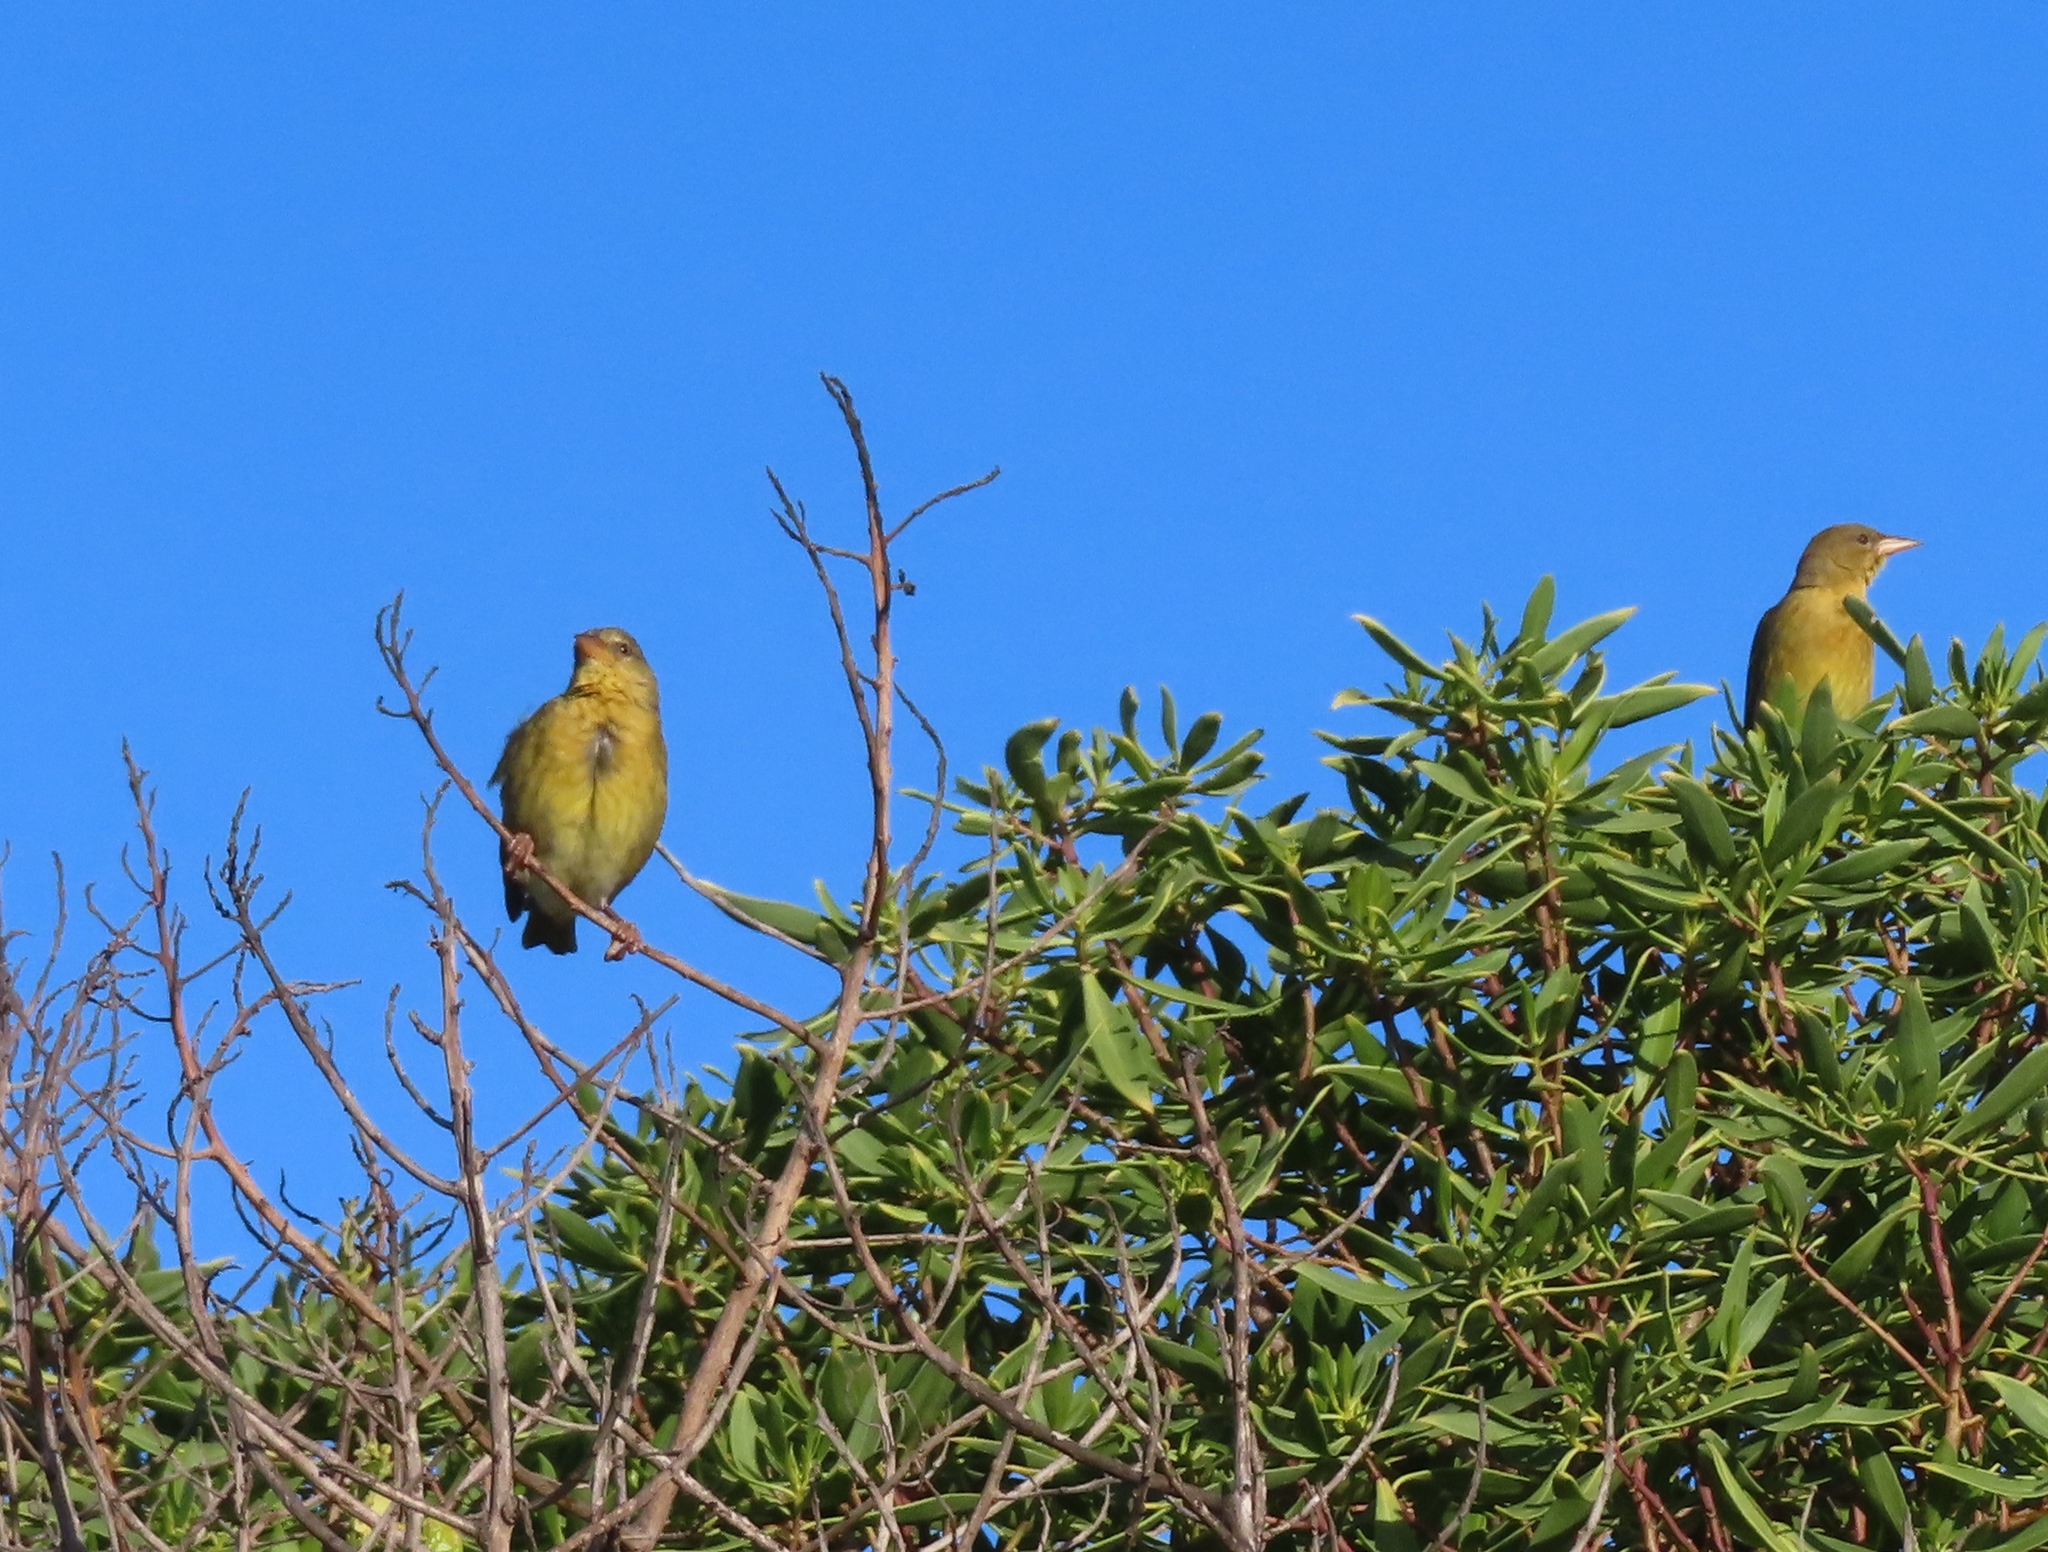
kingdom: Animalia
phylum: Chordata
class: Aves
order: Passeriformes
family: Ploceidae
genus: Ploceus
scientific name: Ploceus capensis
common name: Cape weaver
